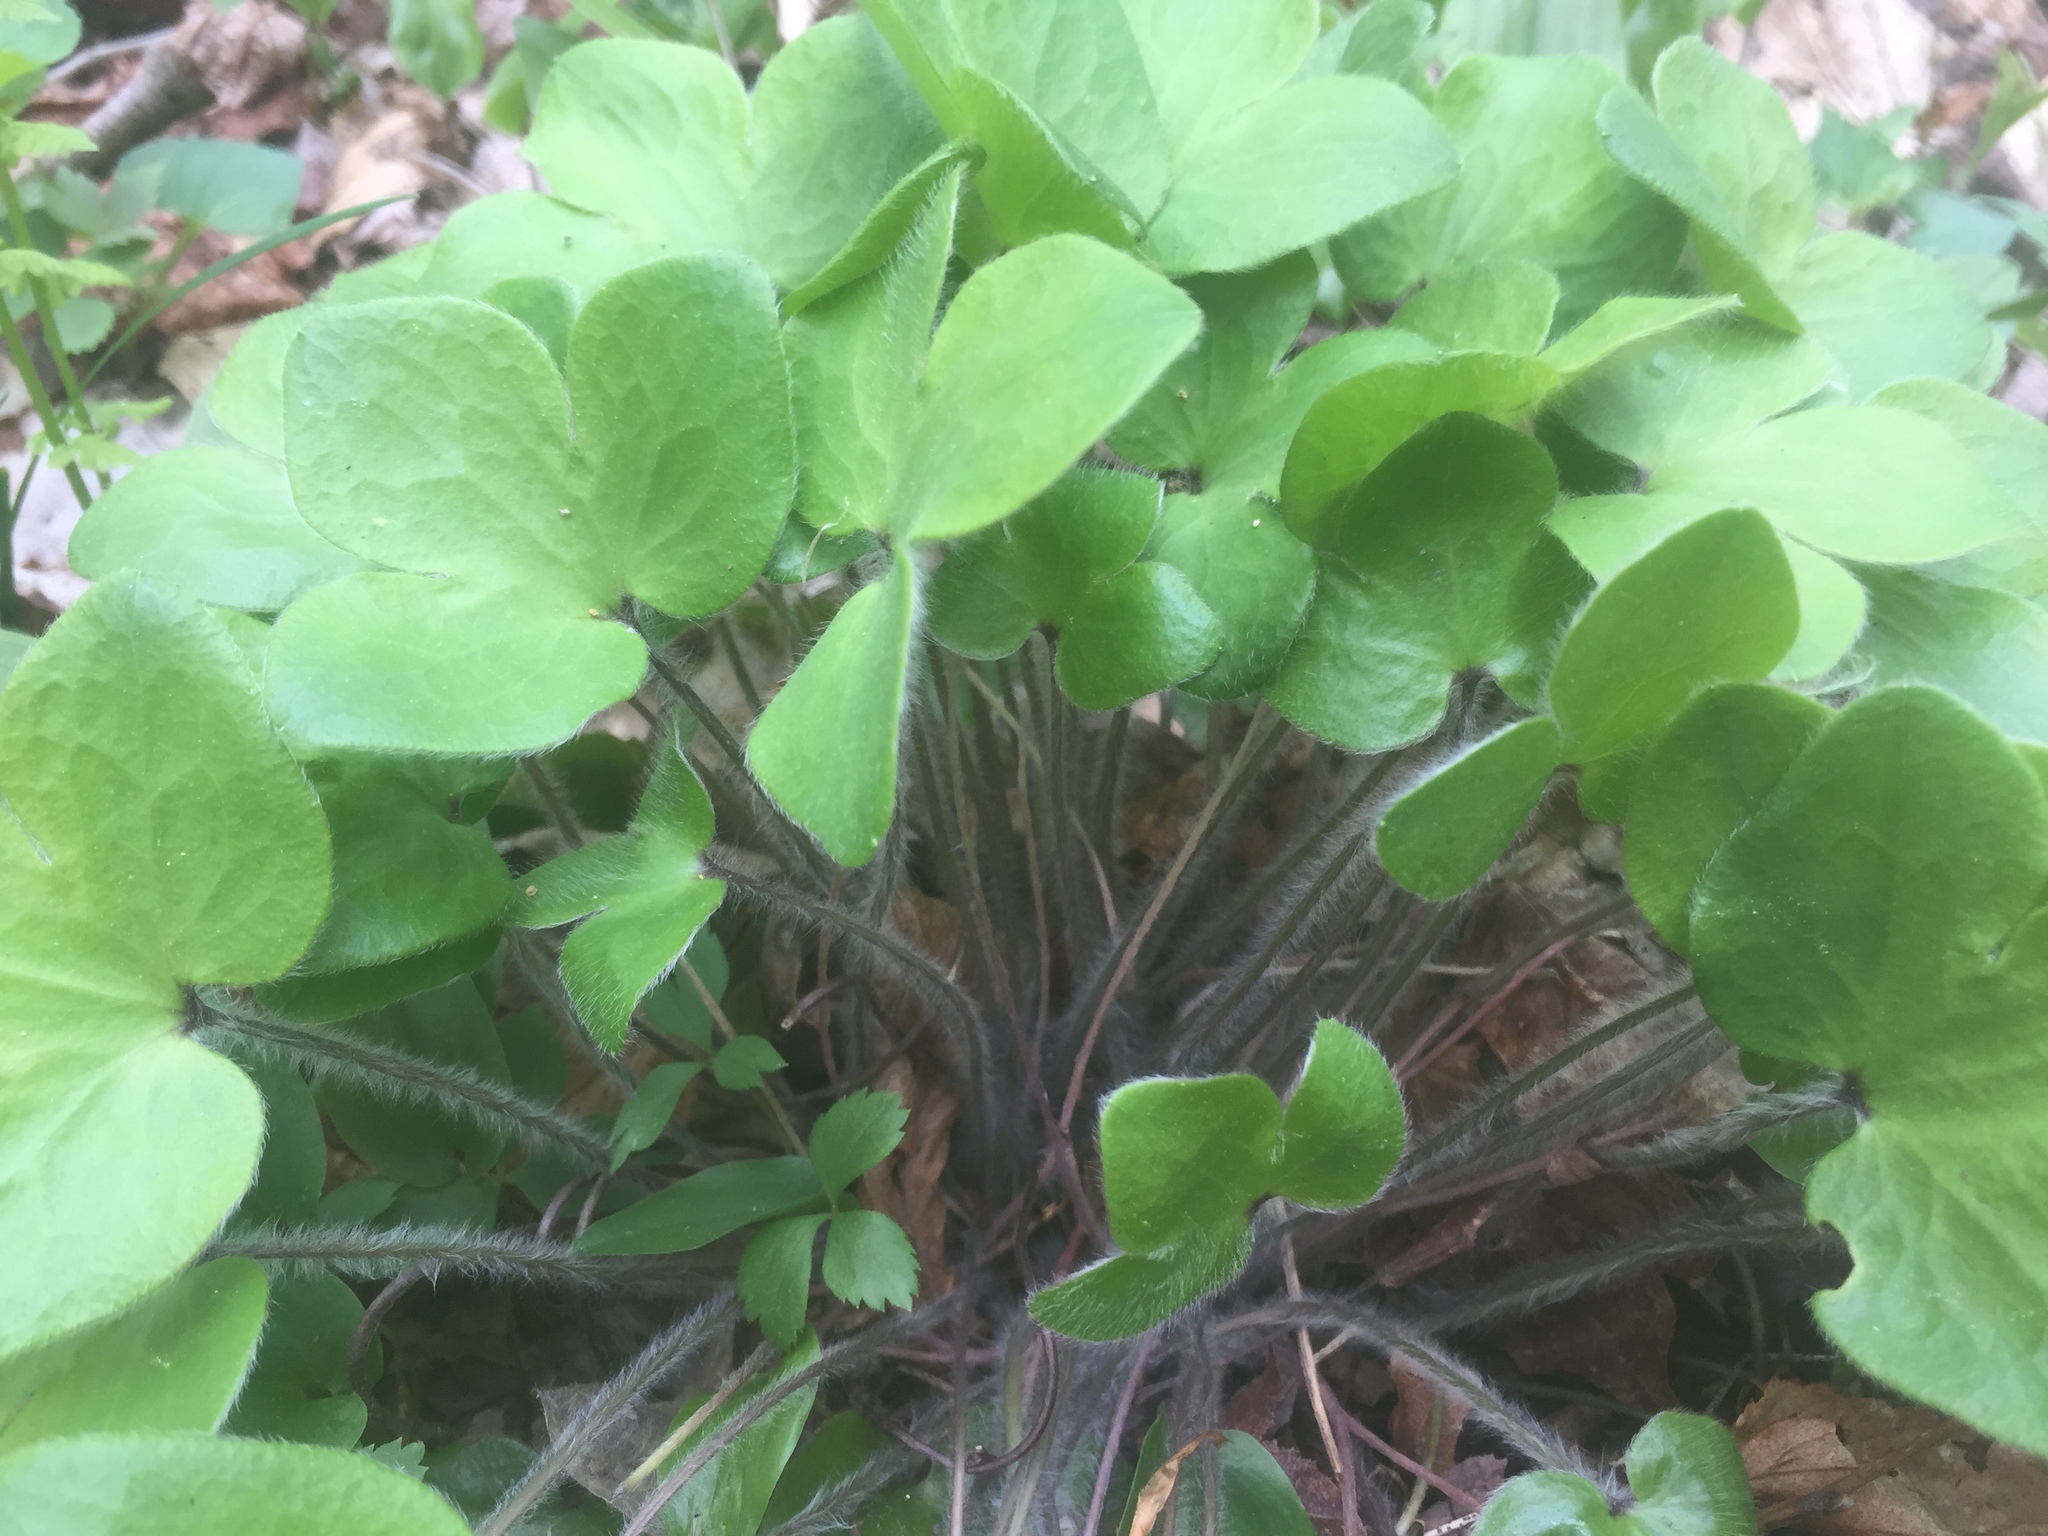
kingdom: Plantae
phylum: Tracheophyta
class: Magnoliopsida
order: Ranunculales
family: Ranunculaceae
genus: Hepatica
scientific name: Hepatica americana
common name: American hepatica
